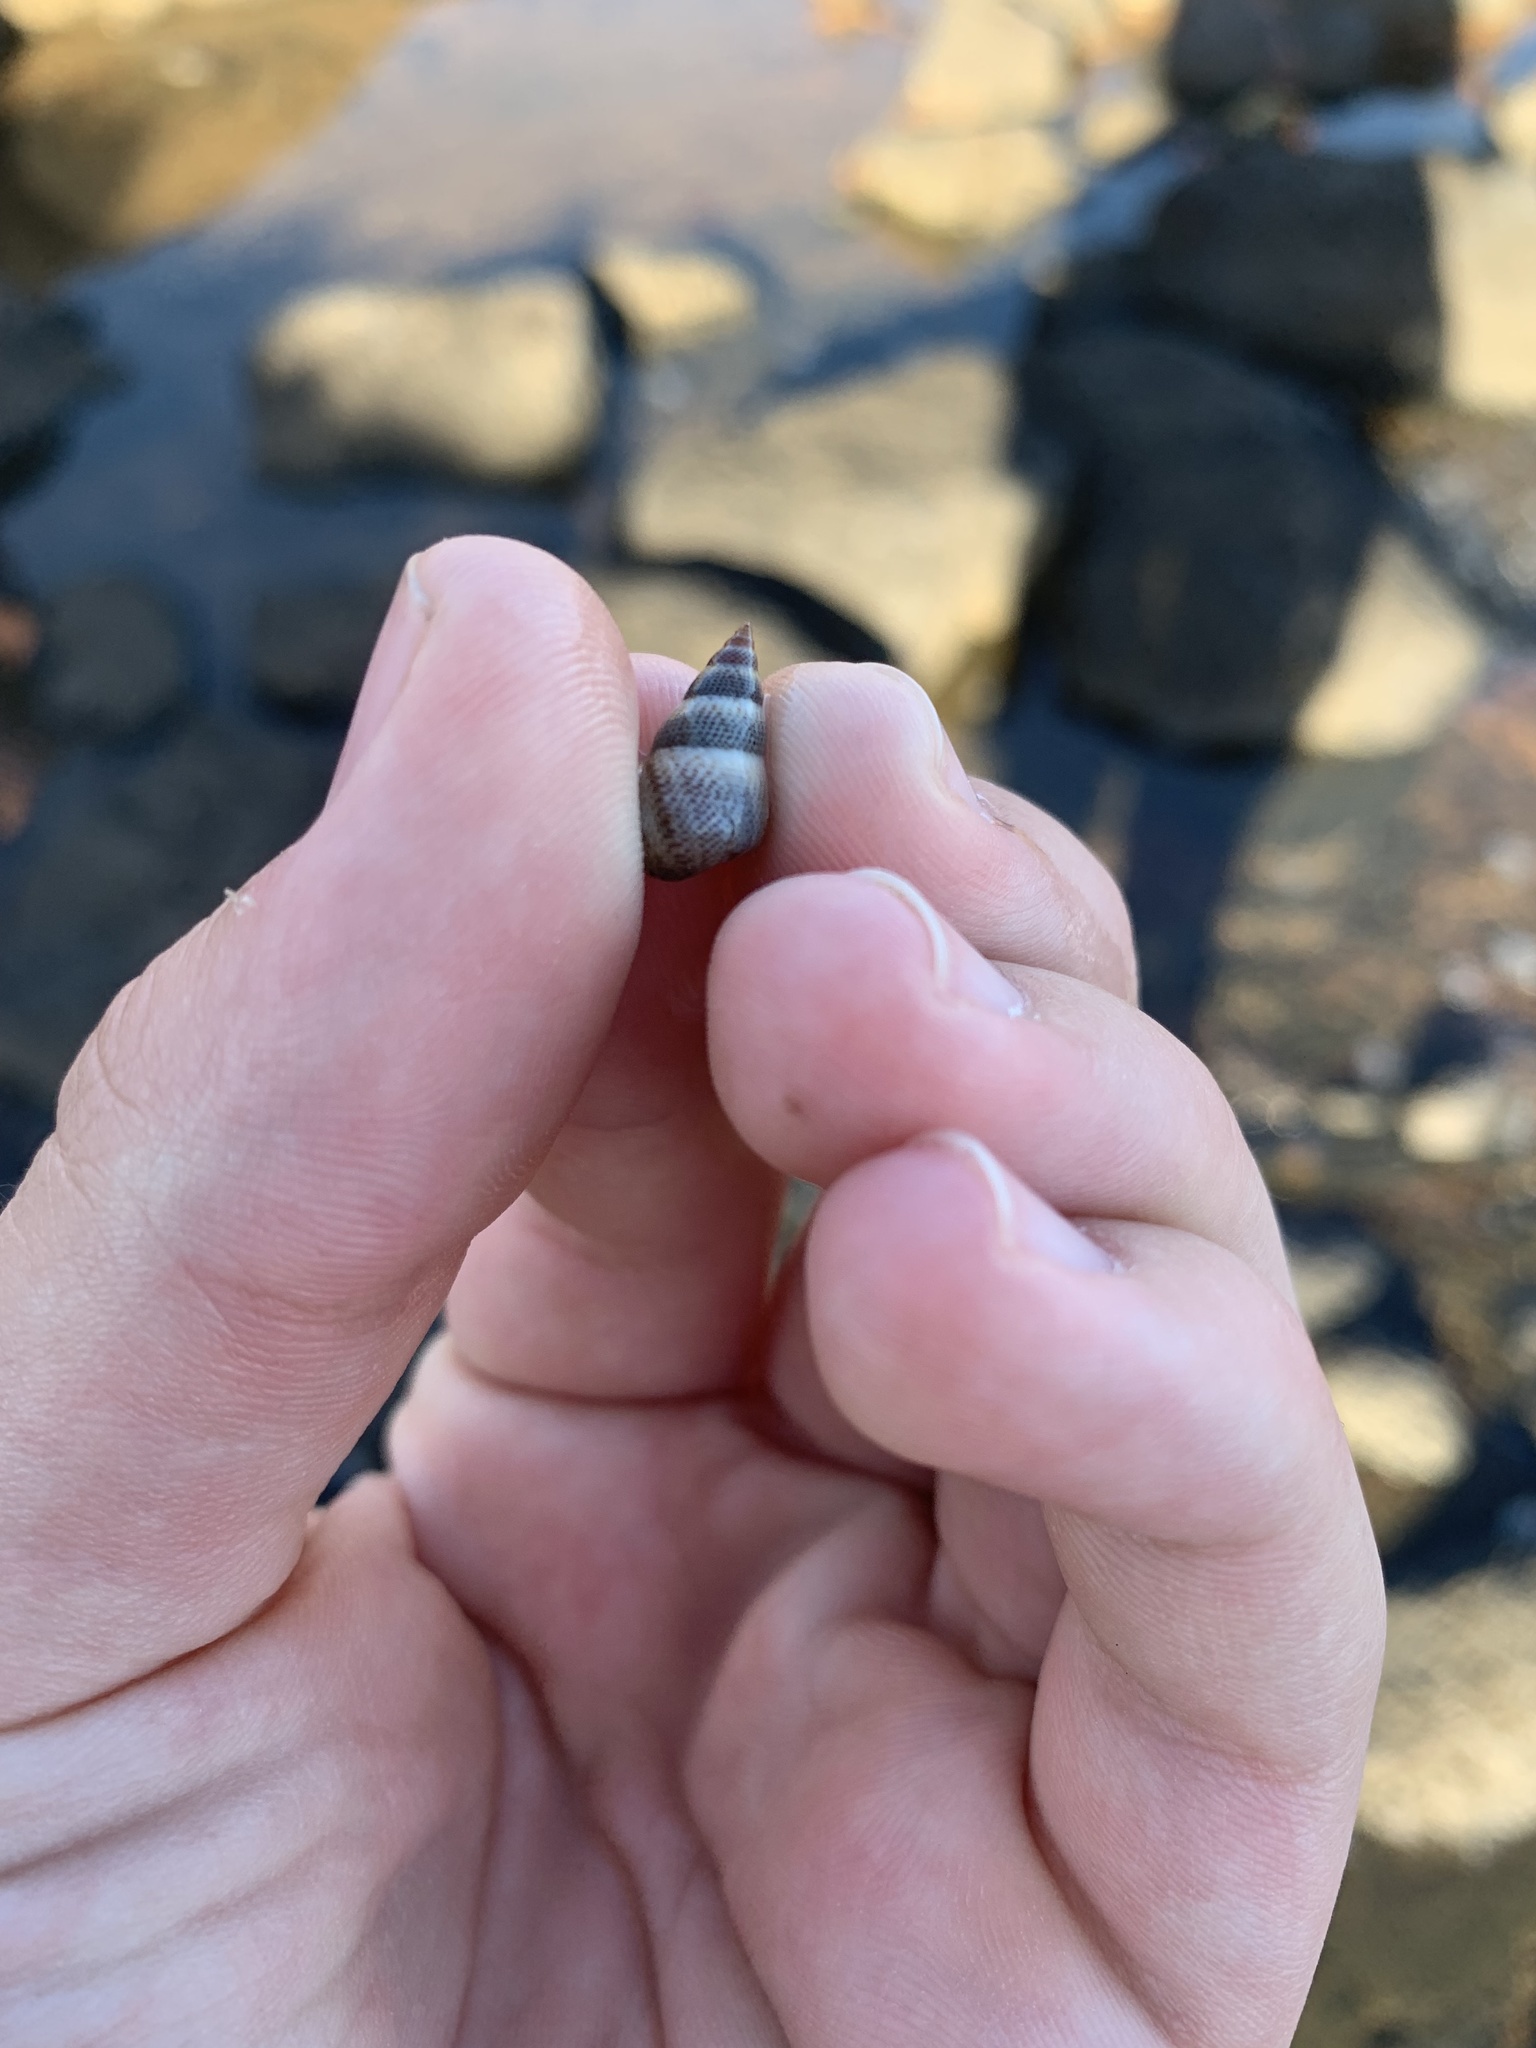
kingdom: Animalia
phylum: Mollusca
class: Gastropoda
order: Littorinimorpha
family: Littorinidae
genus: Littoraria
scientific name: Littoraria pintado
